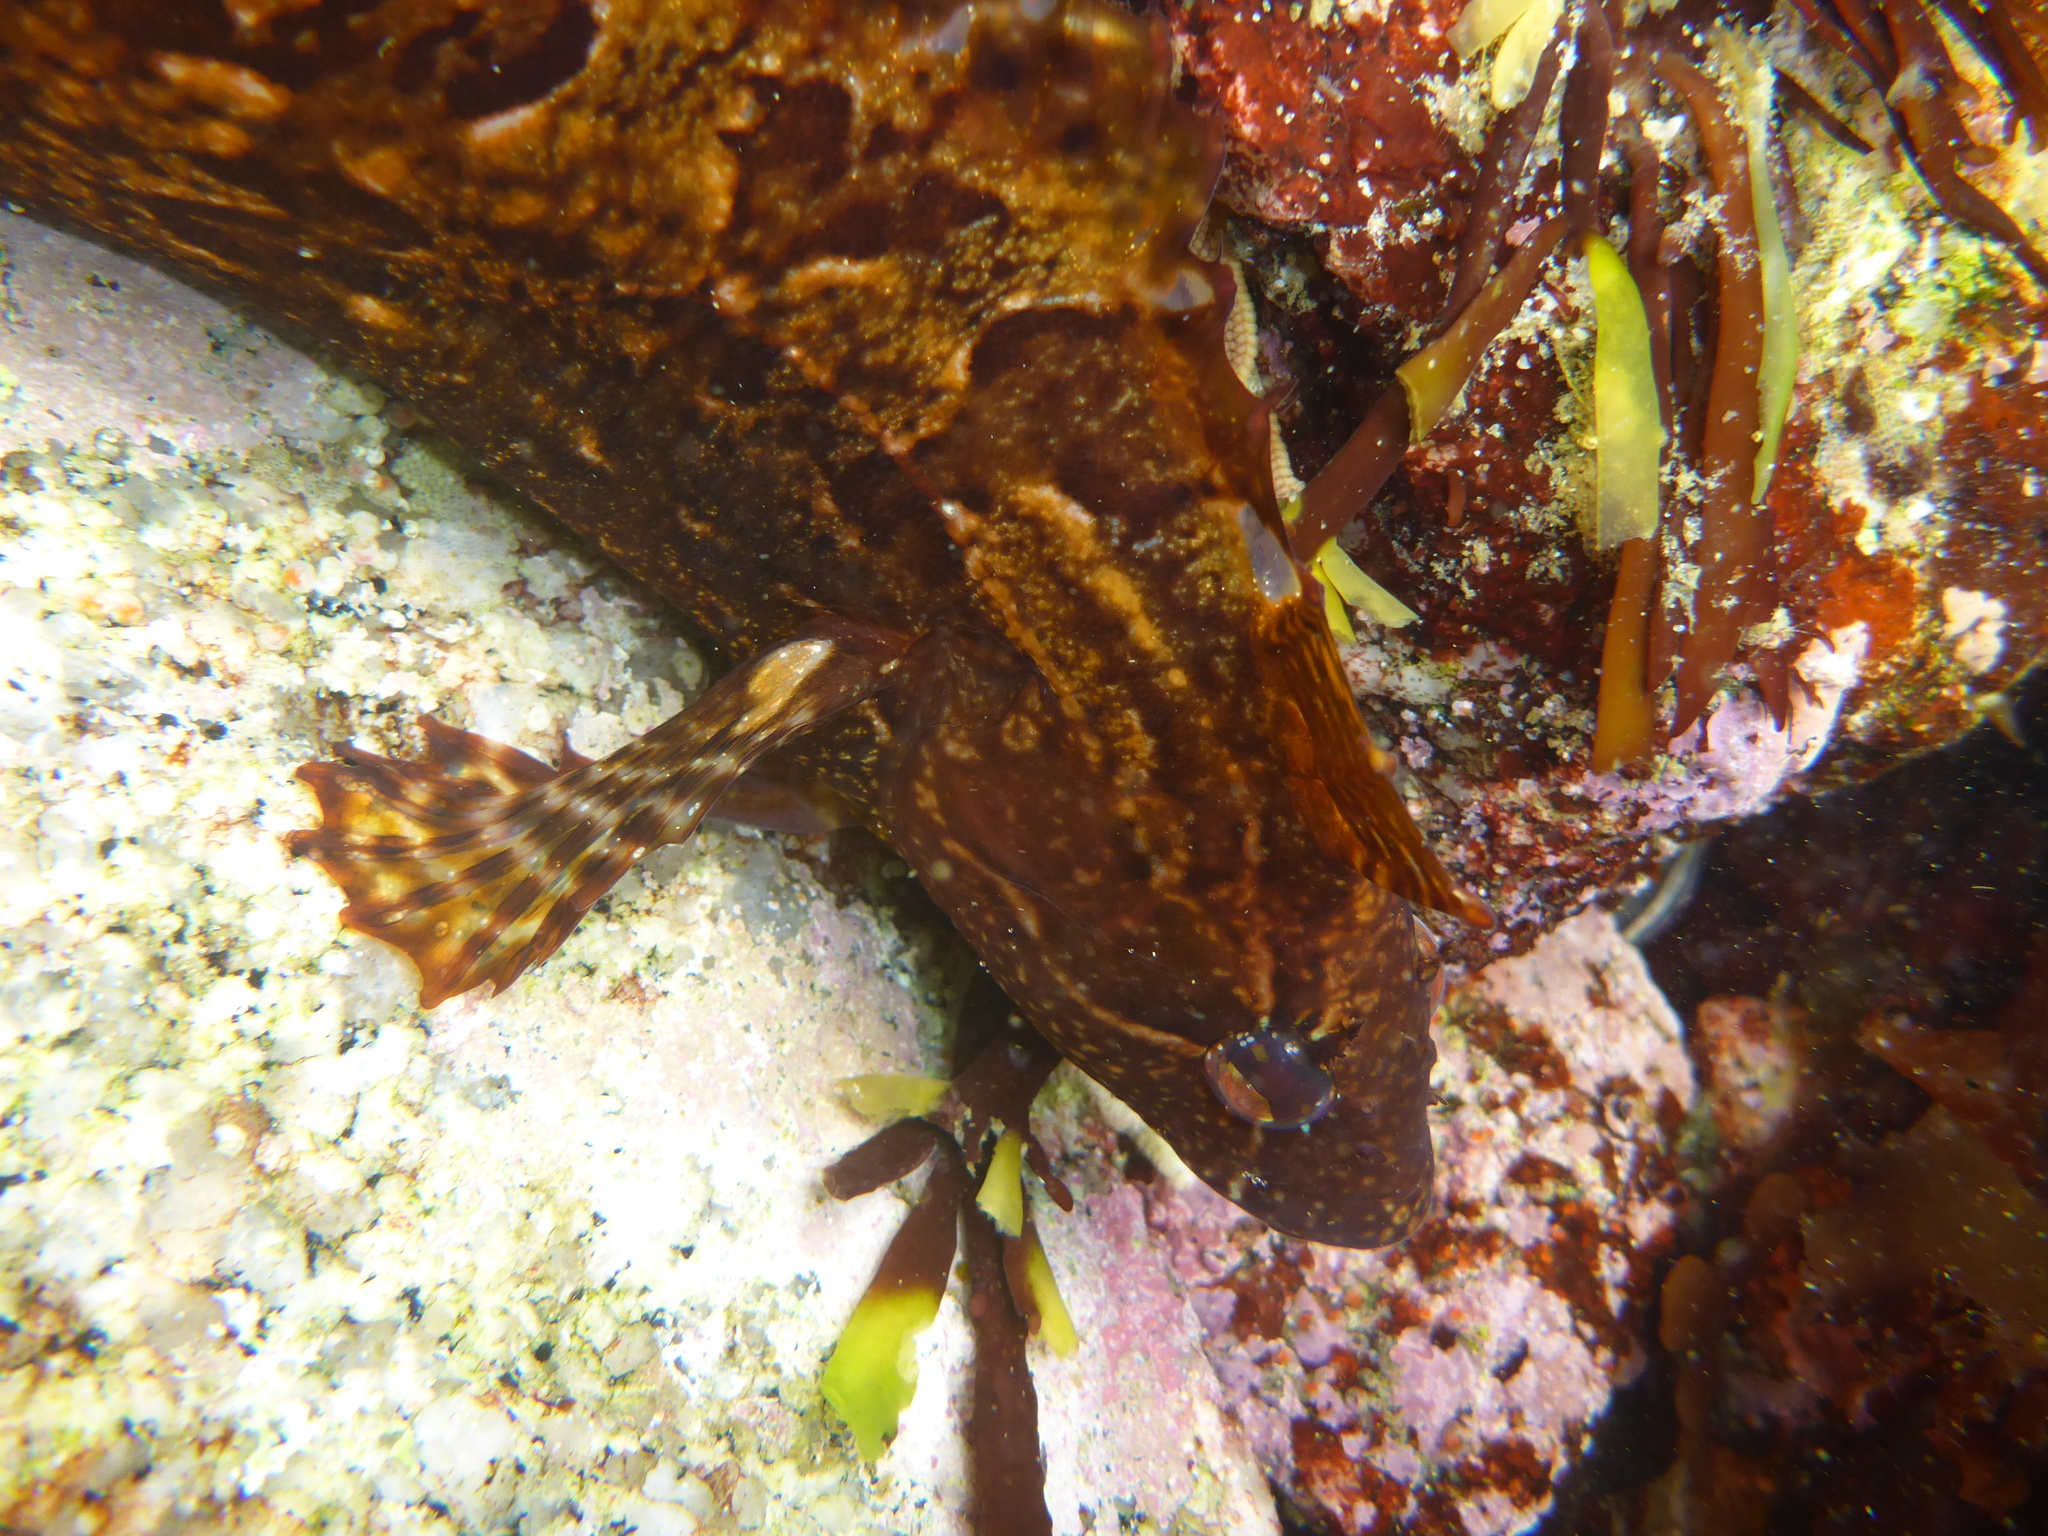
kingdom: Animalia
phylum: Chordata
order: Perciformes
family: Clinidae
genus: Gibbonsia
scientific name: Gibbonsia metzi
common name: Striped kelpfish
